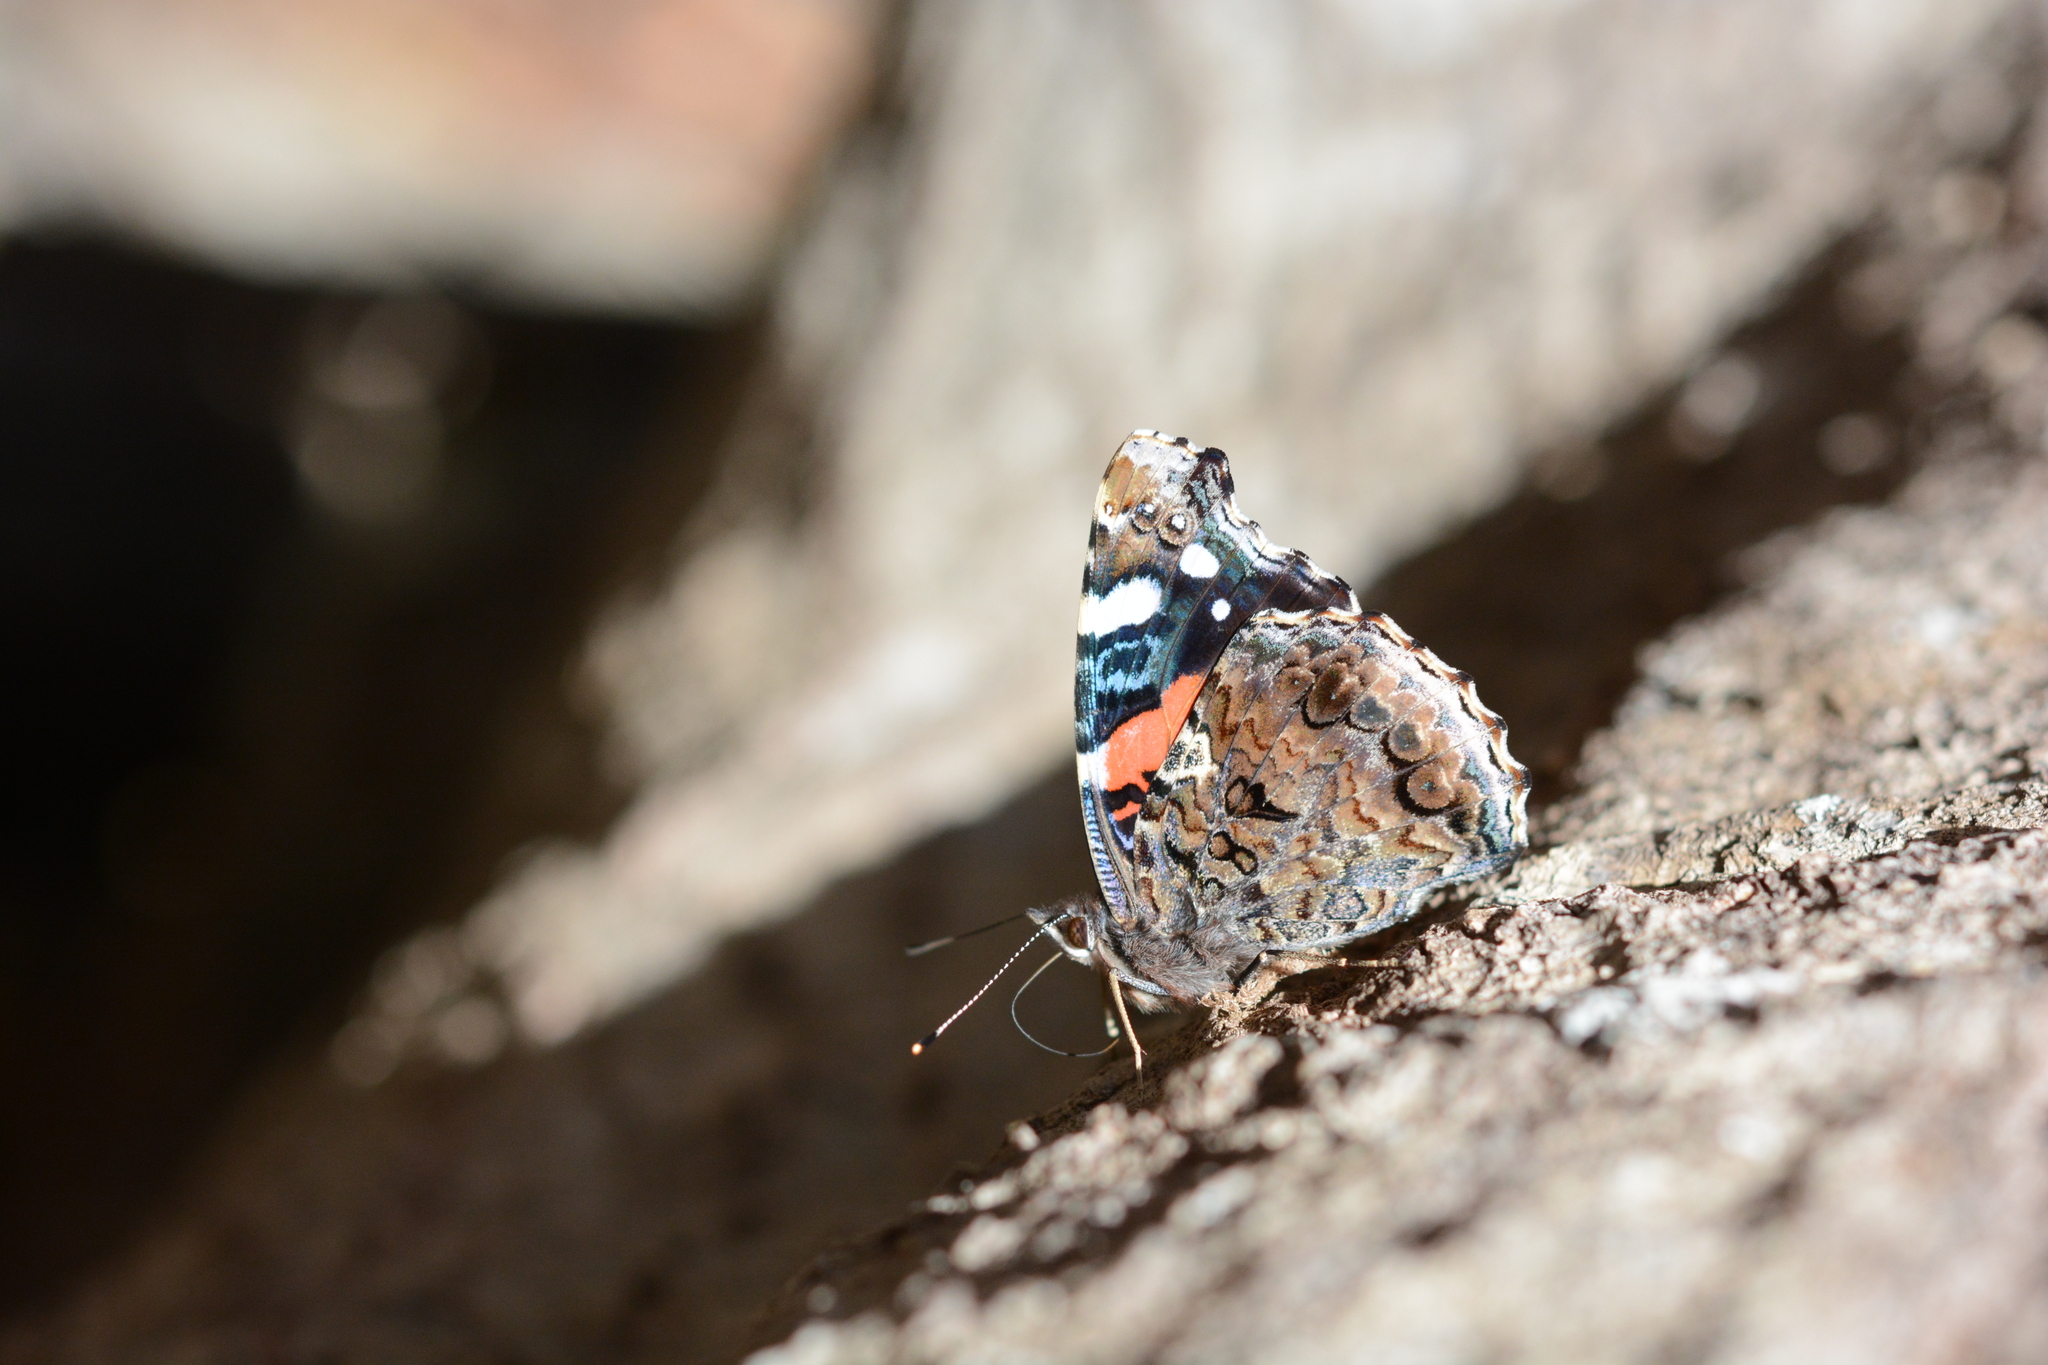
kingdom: Animalia
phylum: Arthropoda
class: Insecta
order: Lepidoptera
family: Nymphalidae
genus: Vanessa
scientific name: Vanessa atalanta
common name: Red admiral
